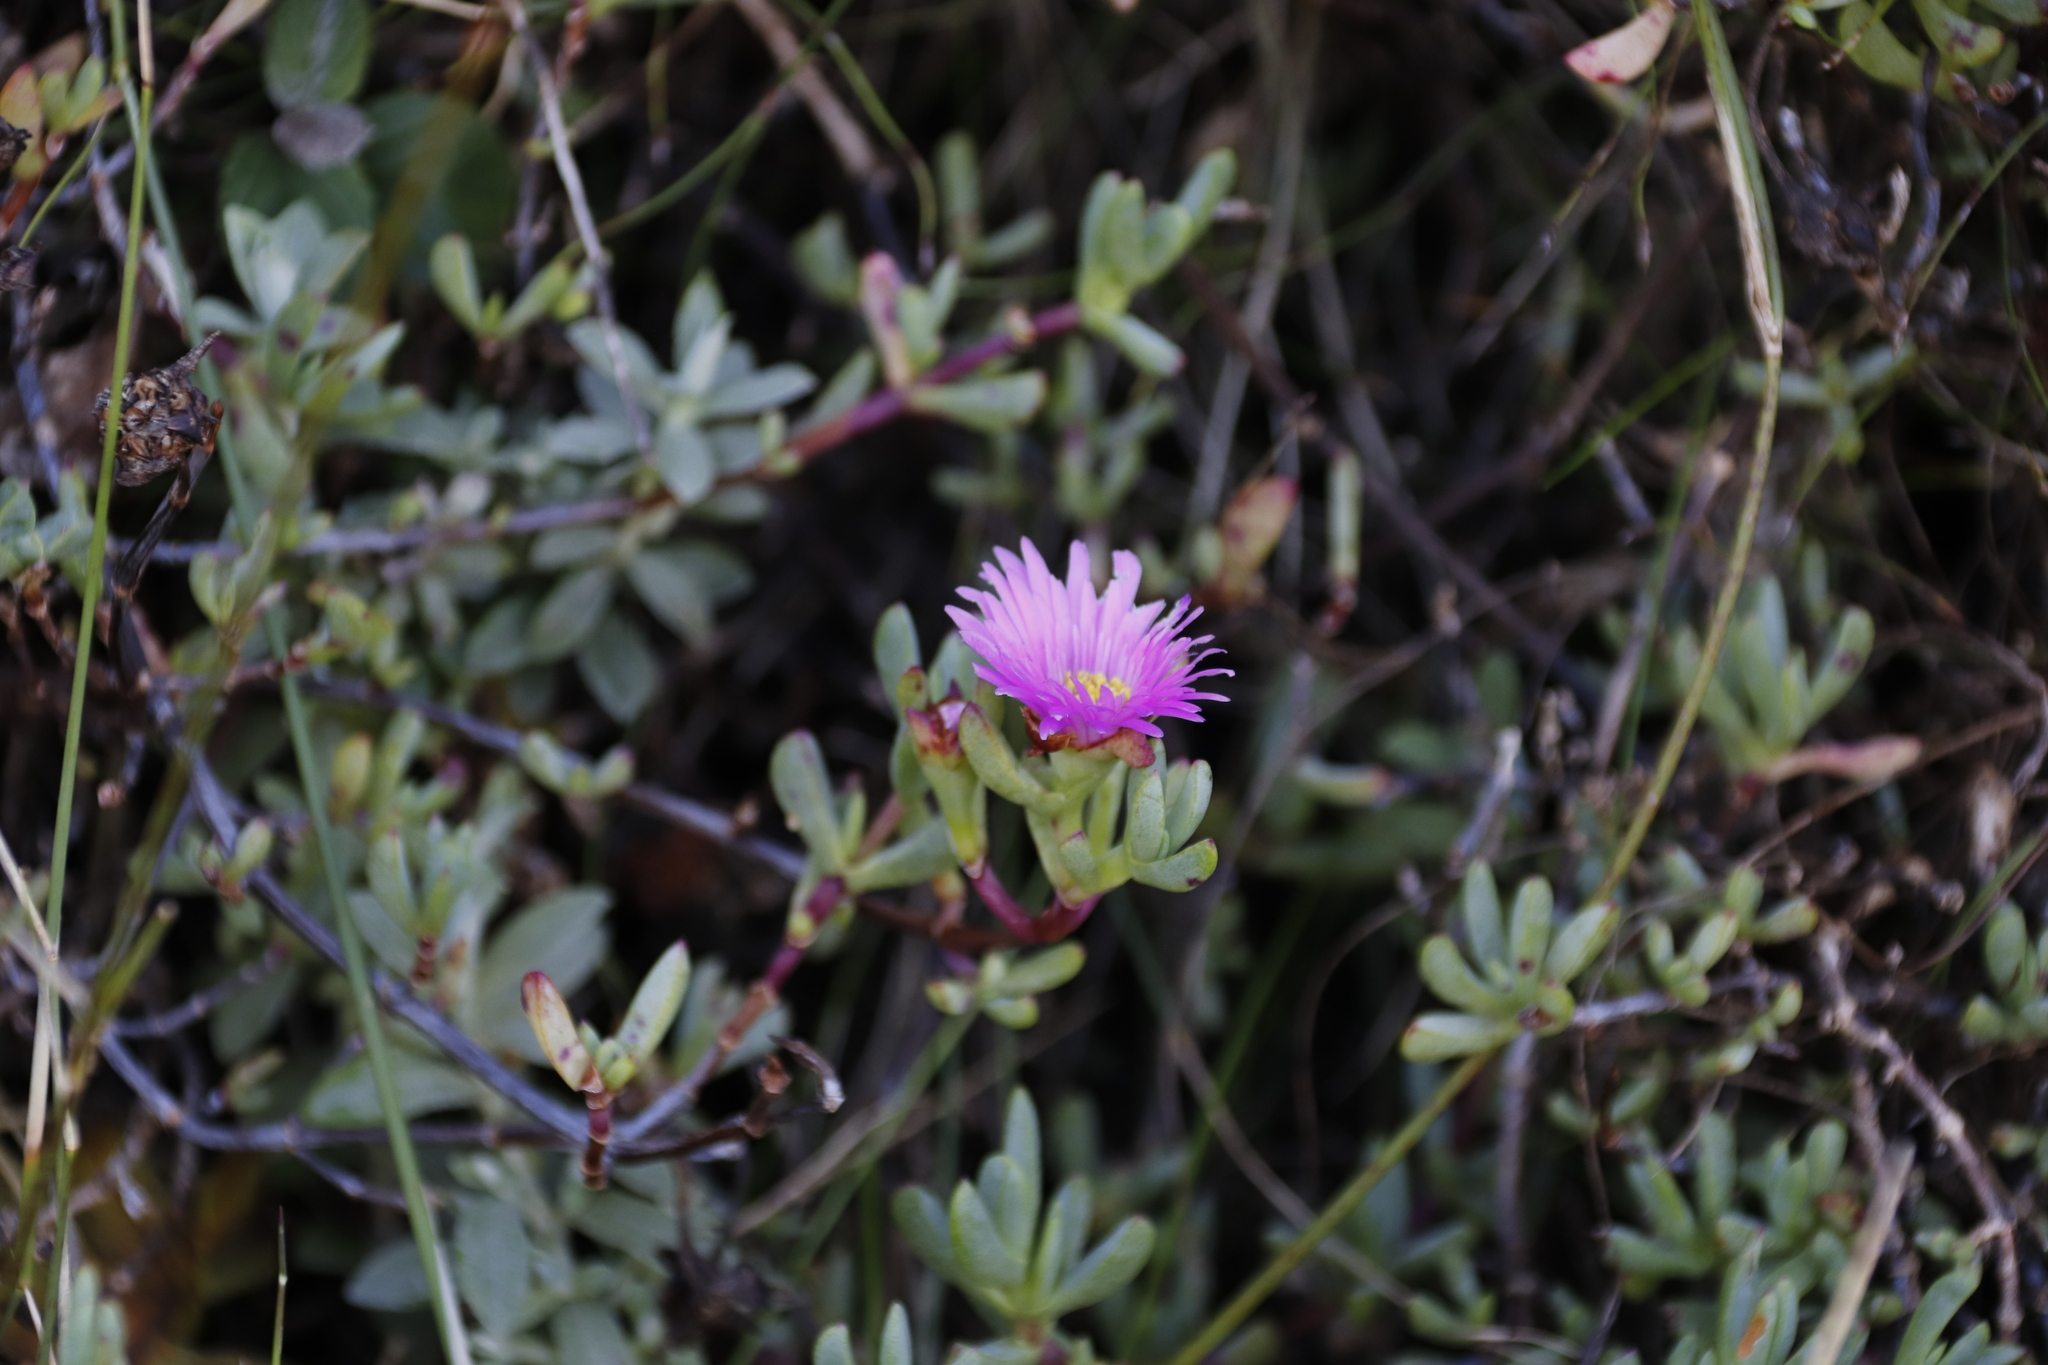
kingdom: Plantae
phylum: Tracheophyta
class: Magnoliopsida
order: Caryophyllales
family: Aizoaceae
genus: Oscularia
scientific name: Oscularia falciformis
